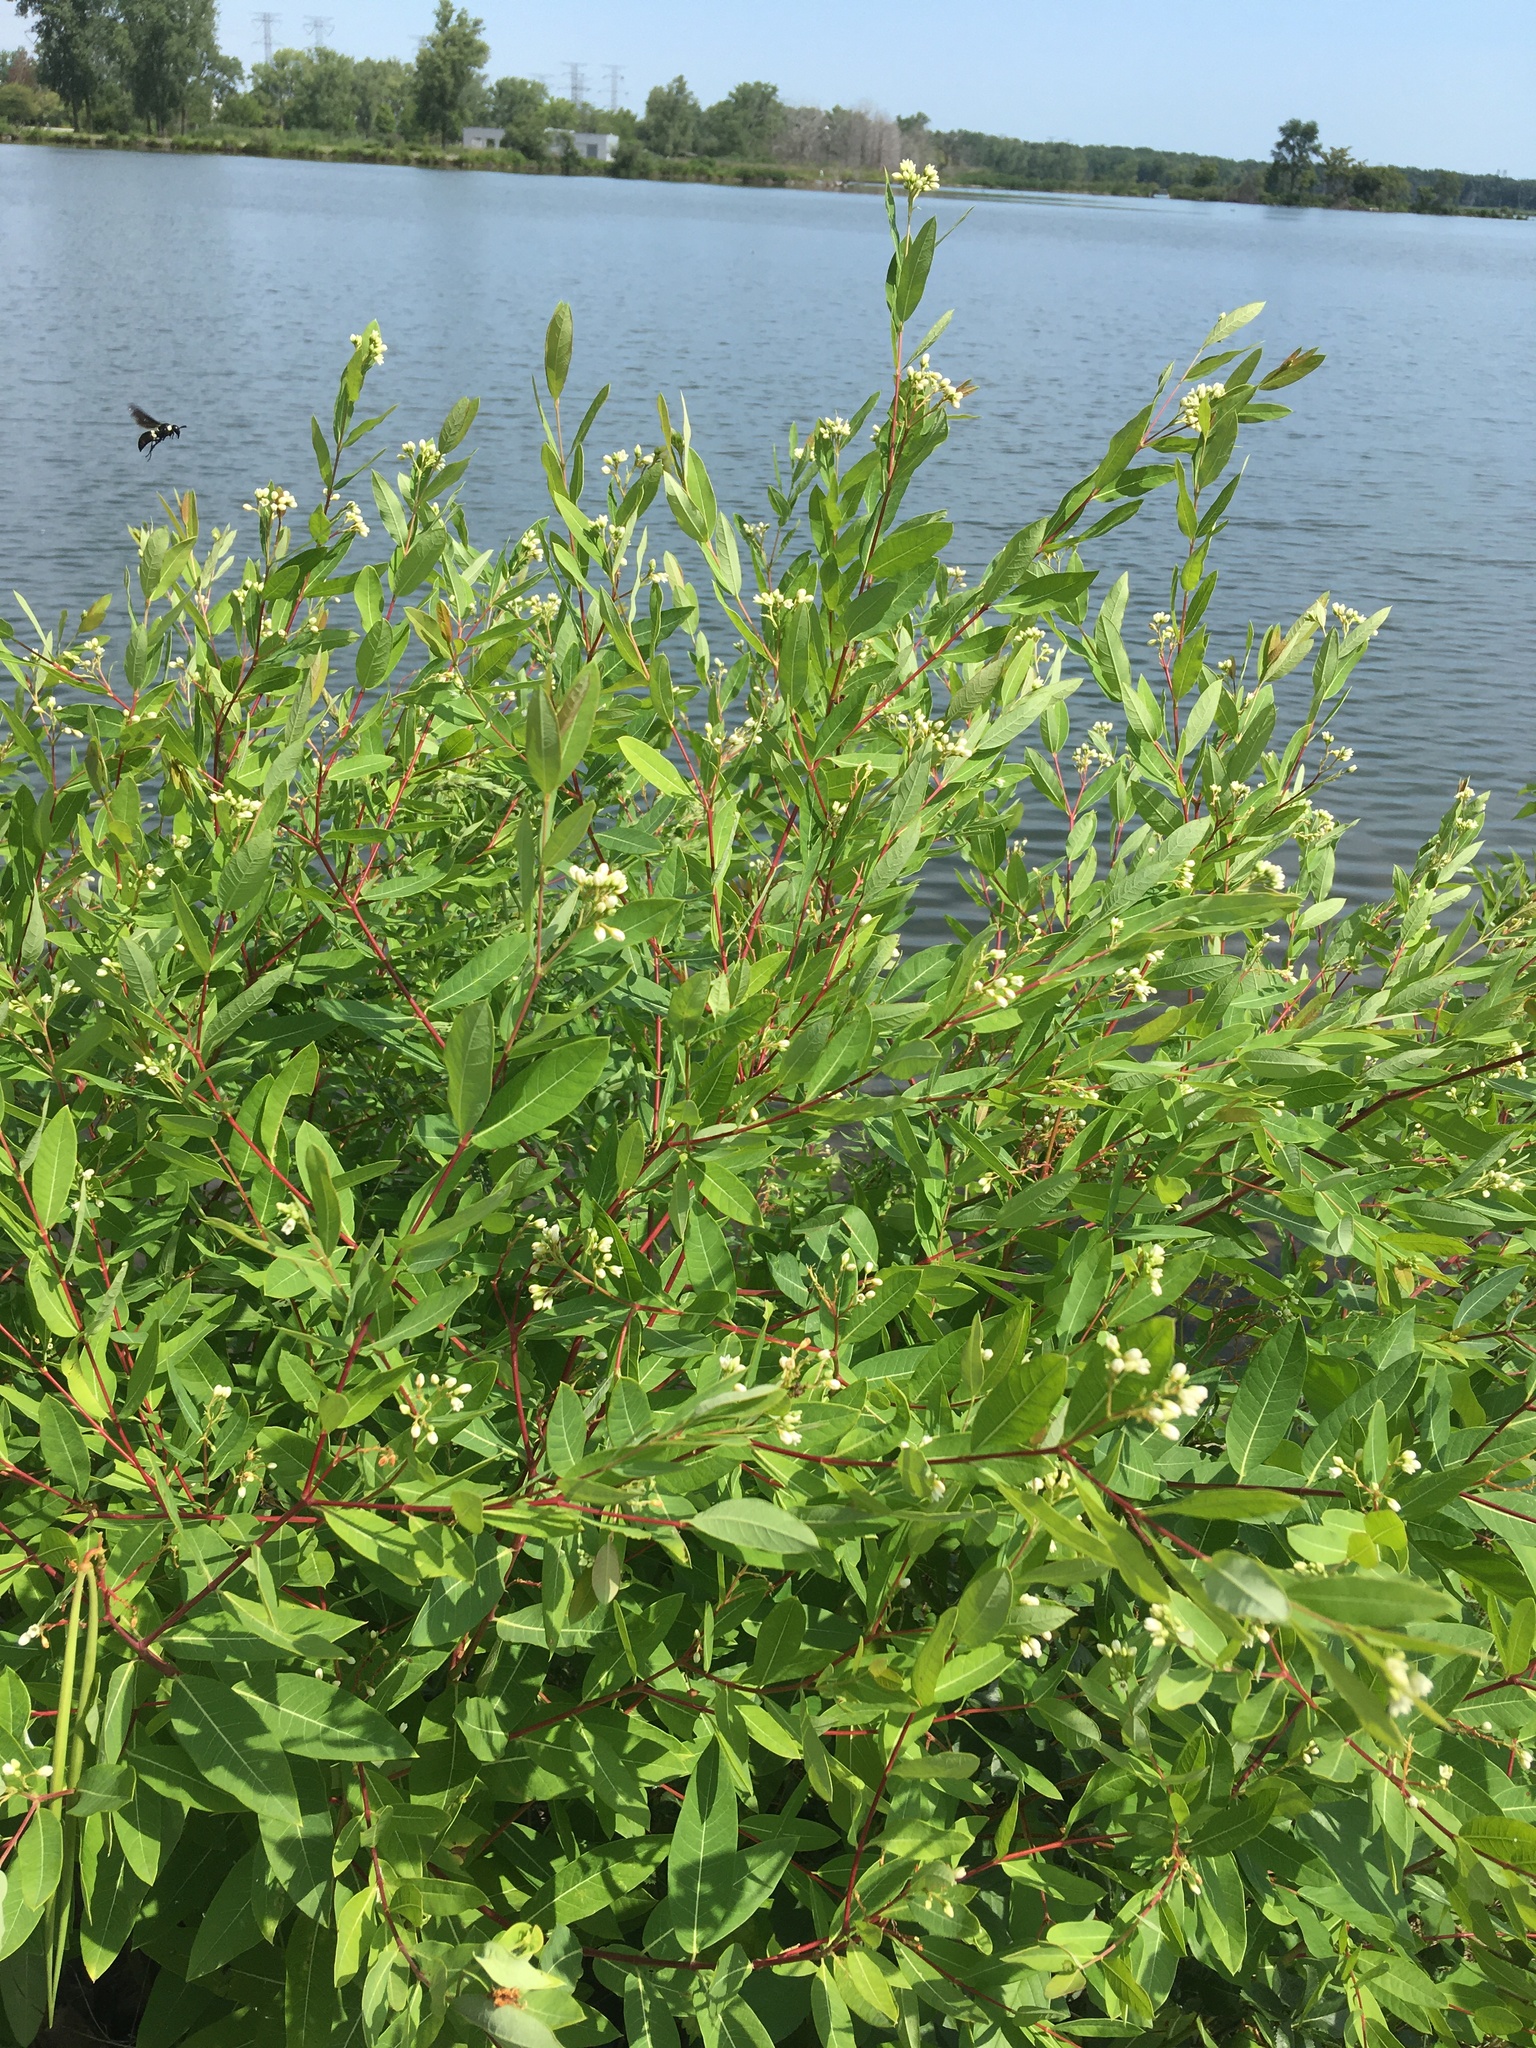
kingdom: Animalia
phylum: Arthropoda
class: Insecta
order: Hymenoptera
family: Eumenidae
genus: Monobia
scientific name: Monobia quadridens
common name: Four-toothed mason wasp
